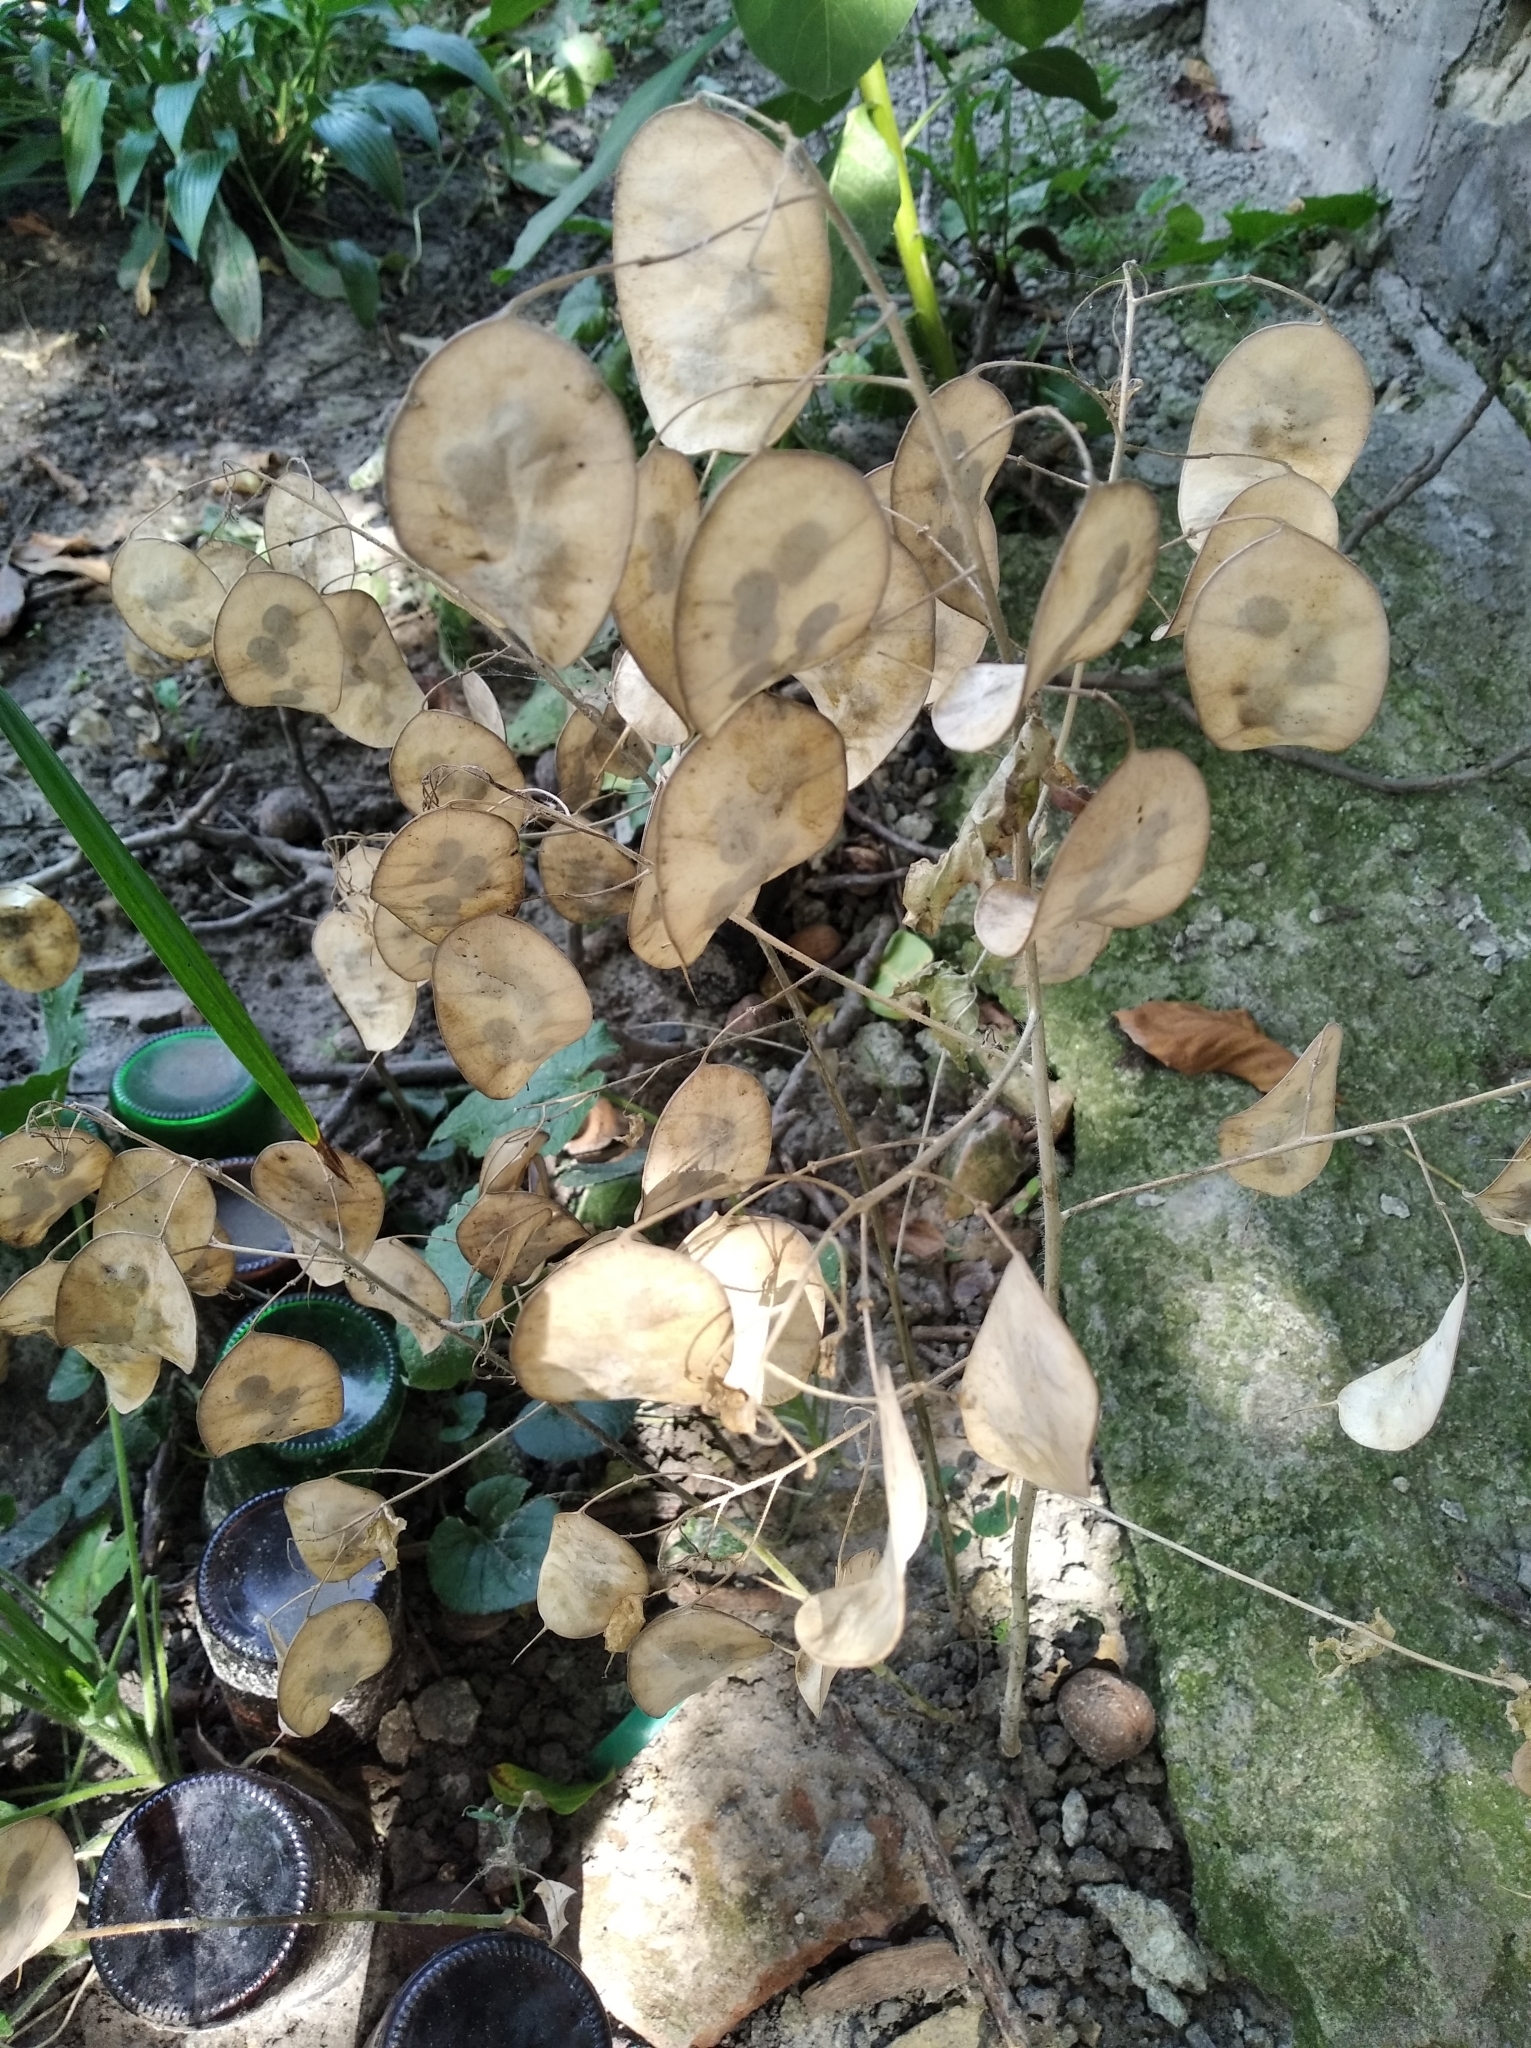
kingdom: Plantae
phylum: Tracheophyta
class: Magnoliopsida
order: Brassicales
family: Brassicaceae
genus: Lunaria
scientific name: Lunaria annua
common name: Honesty
